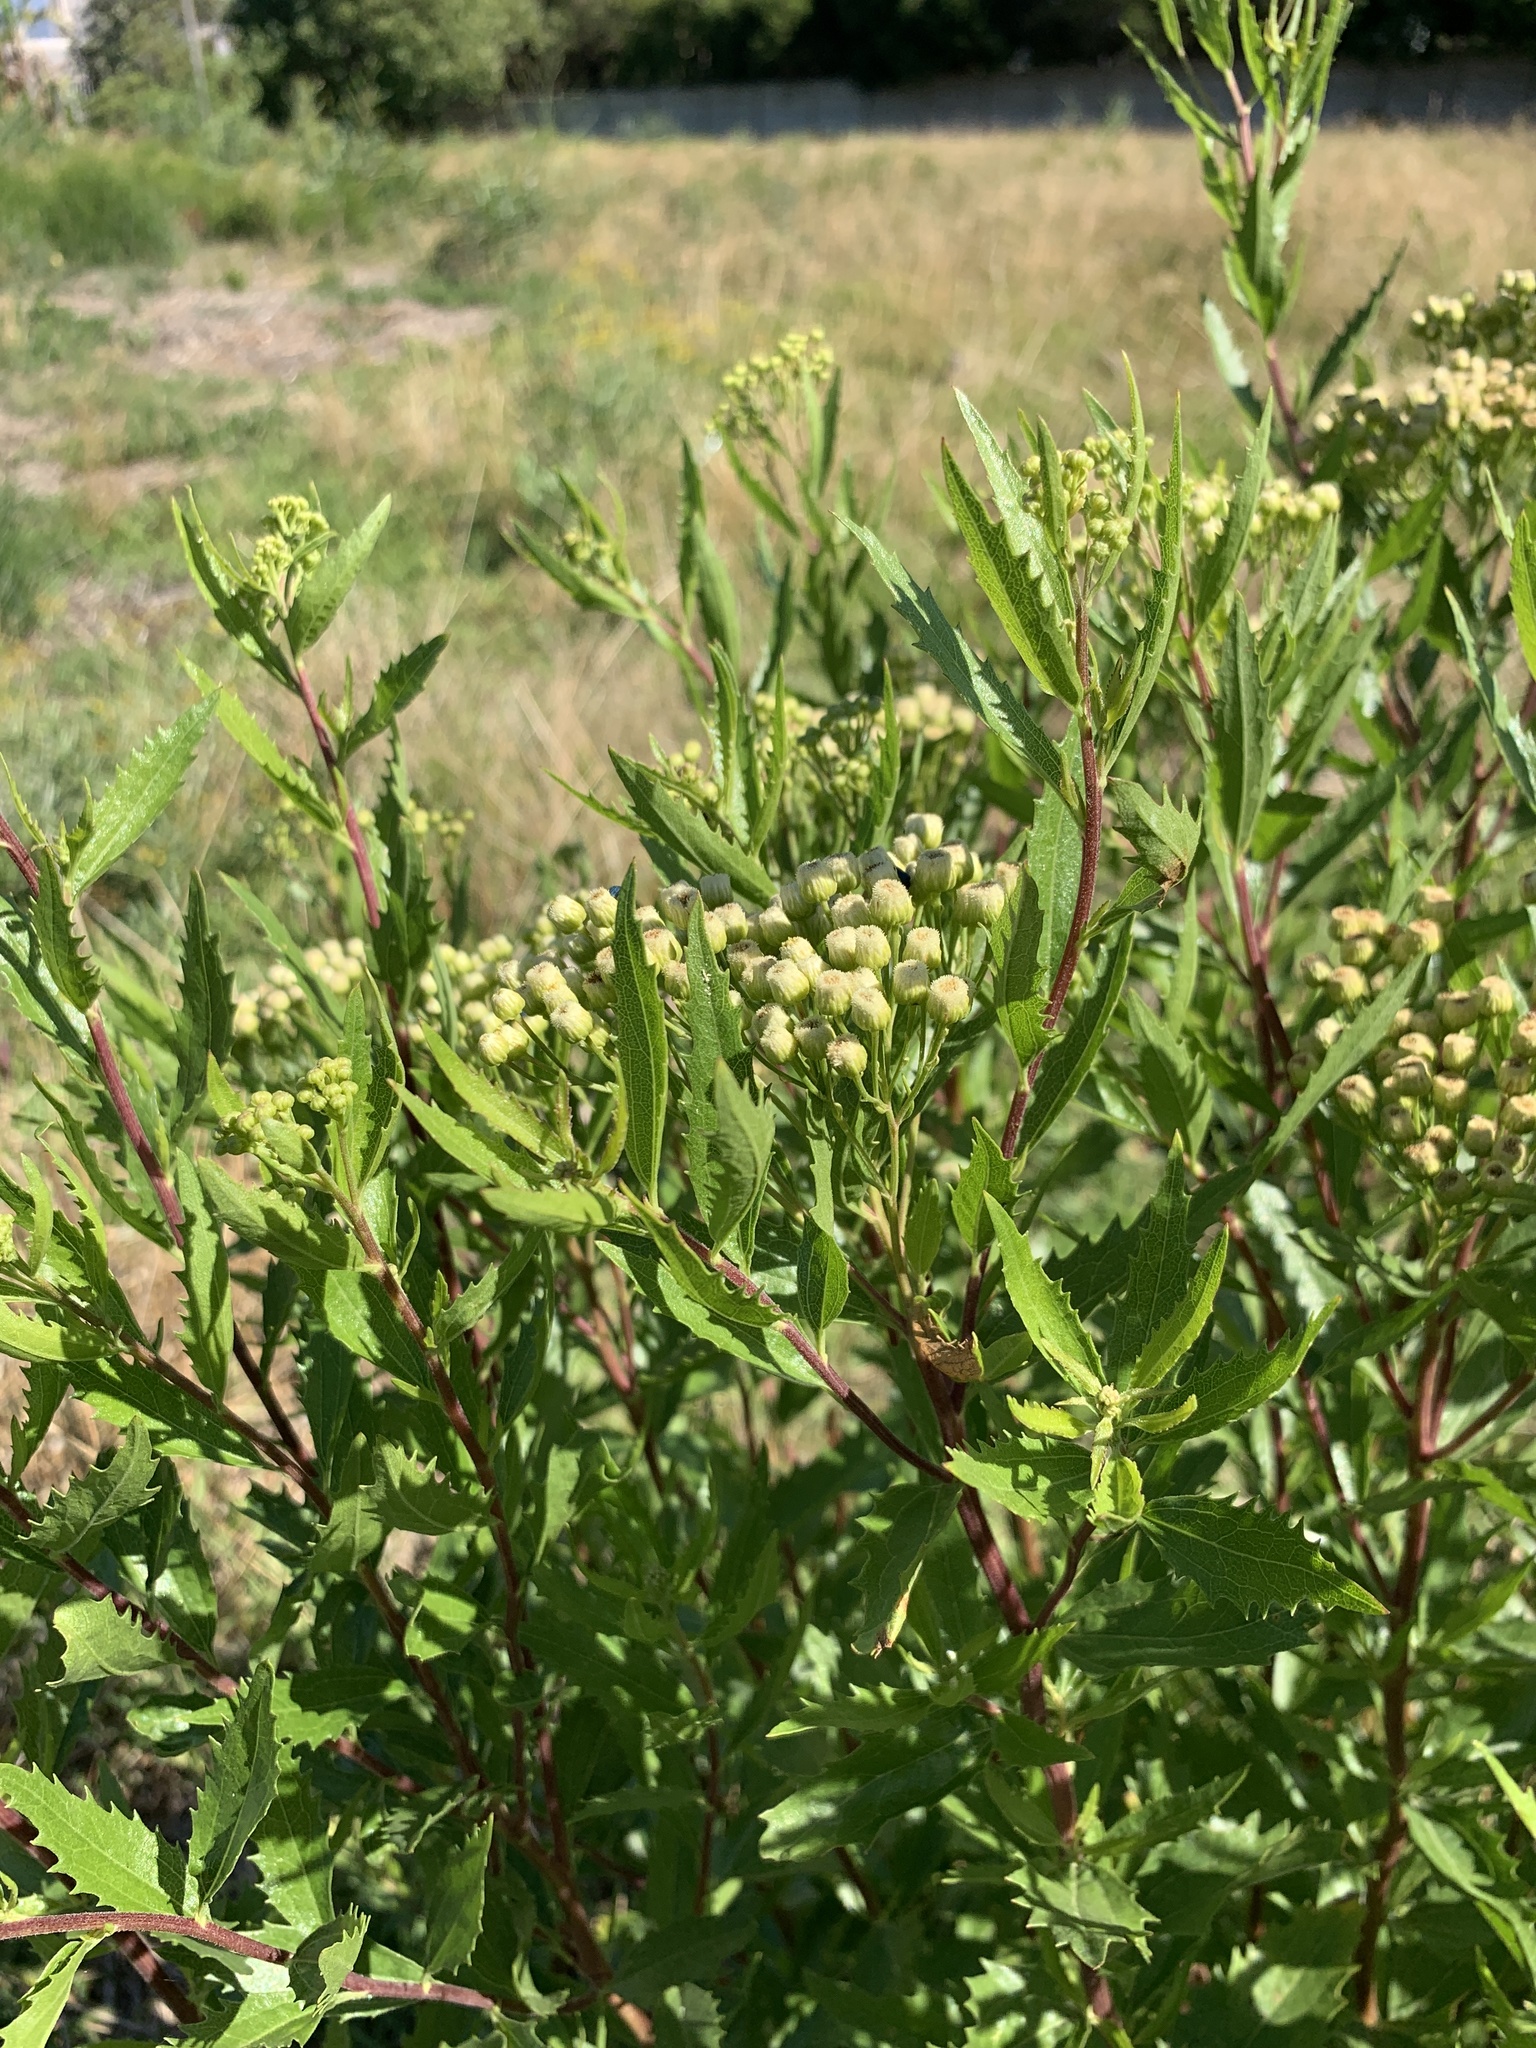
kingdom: Plantae
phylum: Tracheophyta
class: Magnoliopsida
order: Asterales
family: Asteraceae
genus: Nidorella
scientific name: Nidorella ivifolia
